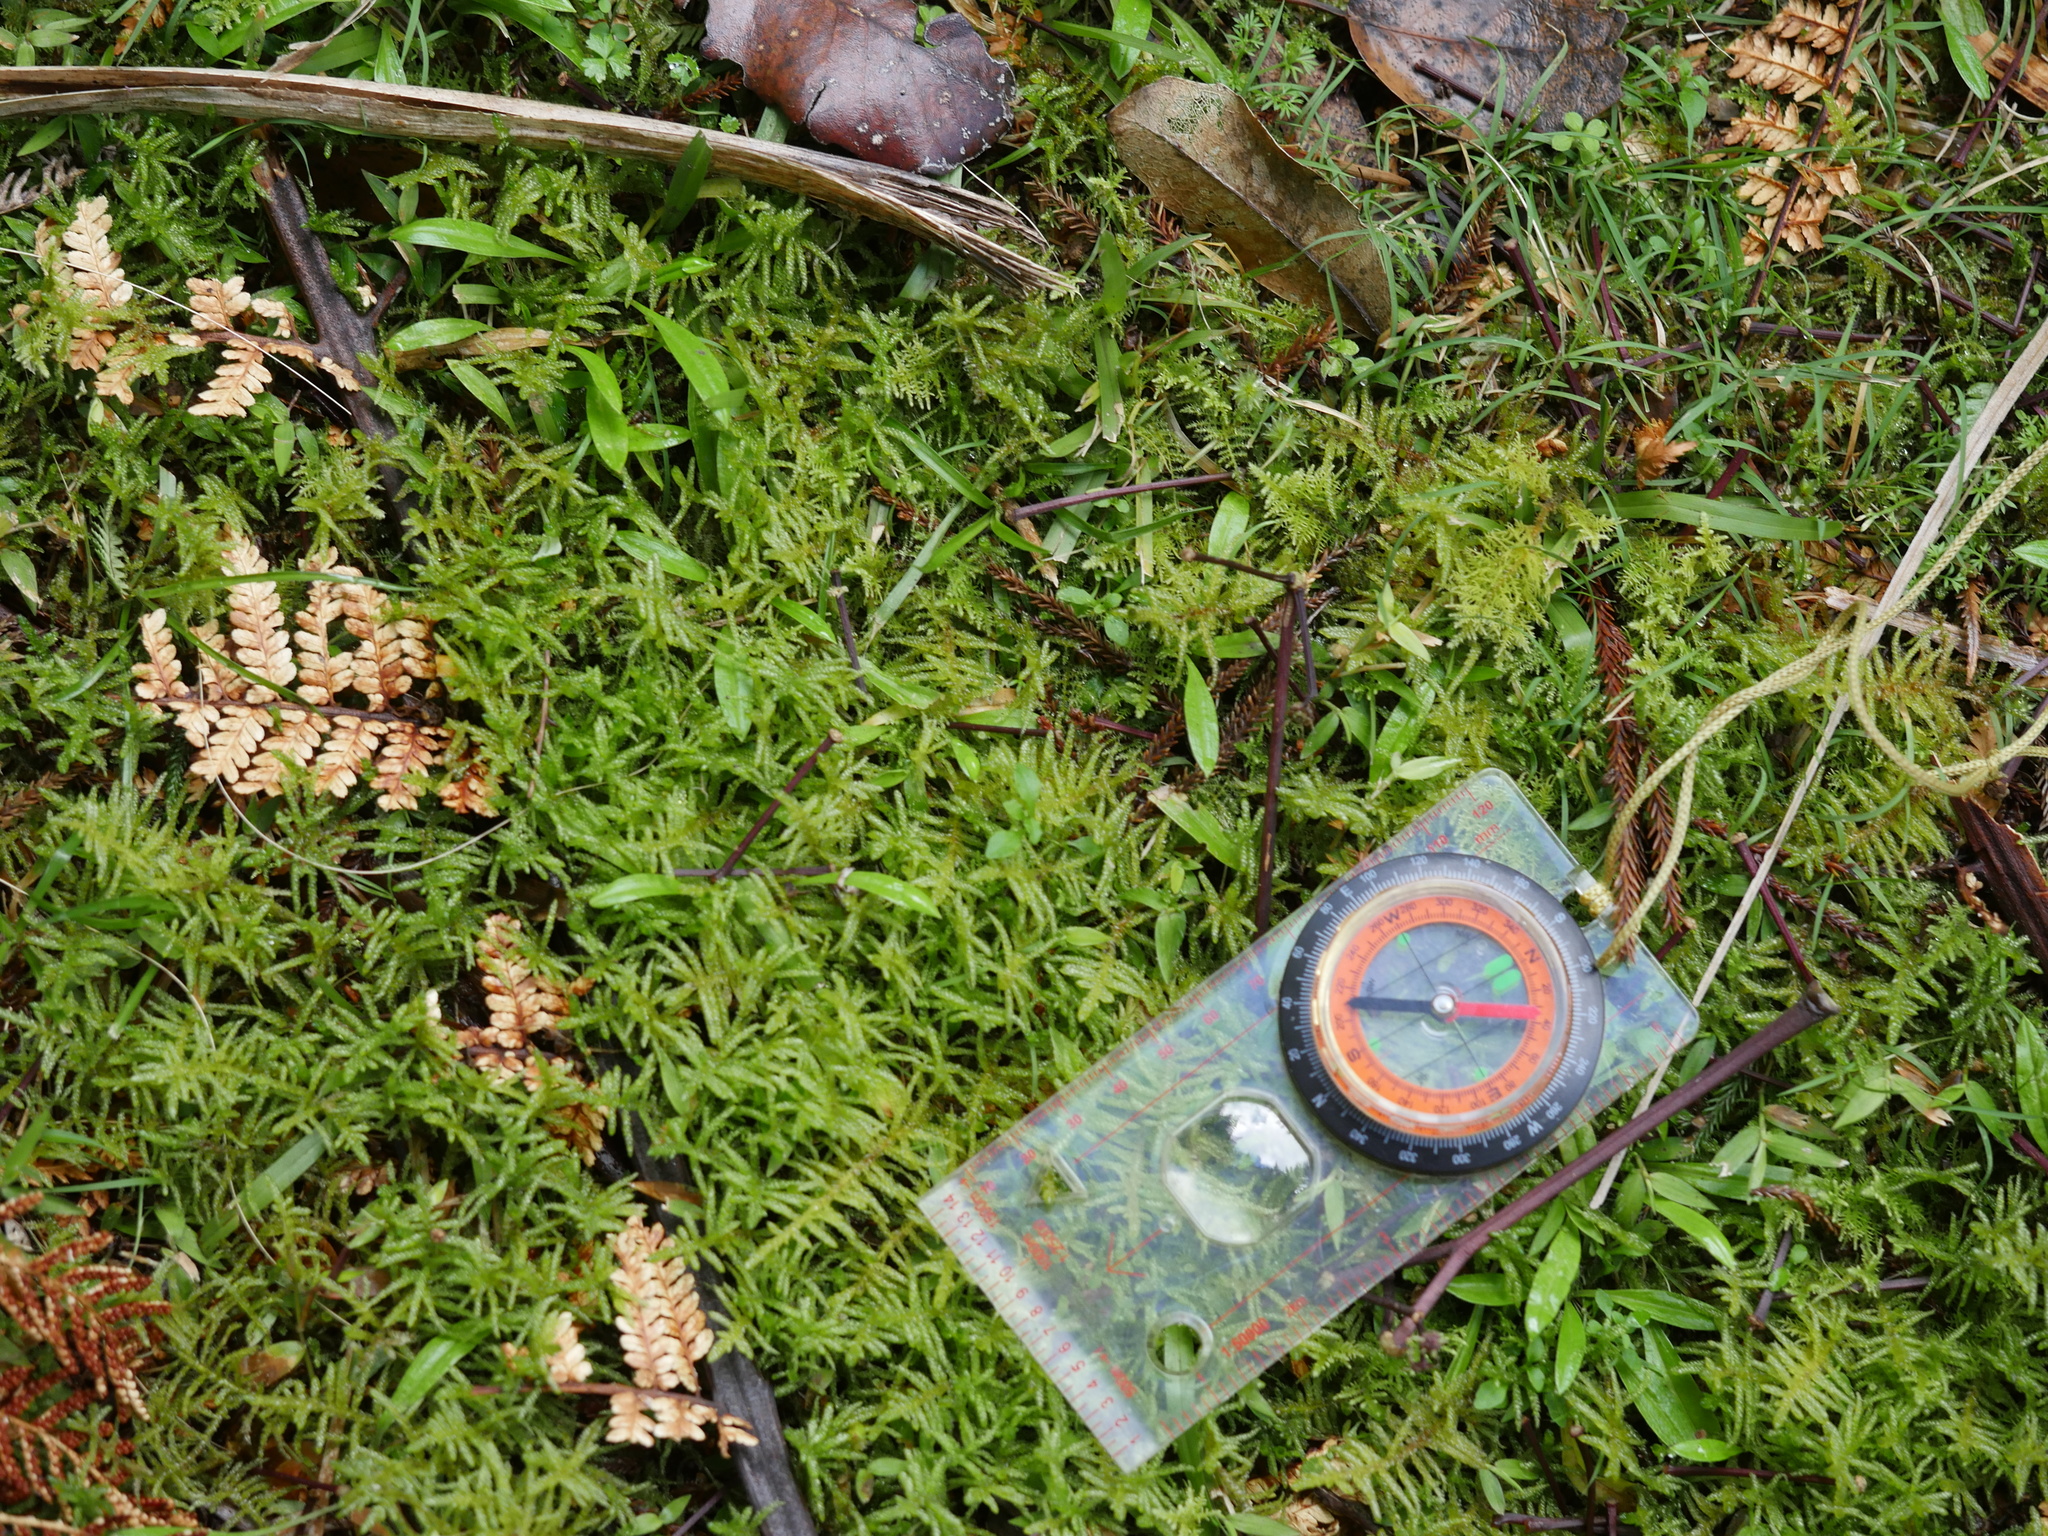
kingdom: Plantae
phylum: Bryophyta
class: Bryopsida
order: Hypnales
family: Brachytheciaceae
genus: Pseudoscleropodium
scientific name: Pseudoscleropodium purum
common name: Neat feather-moss
